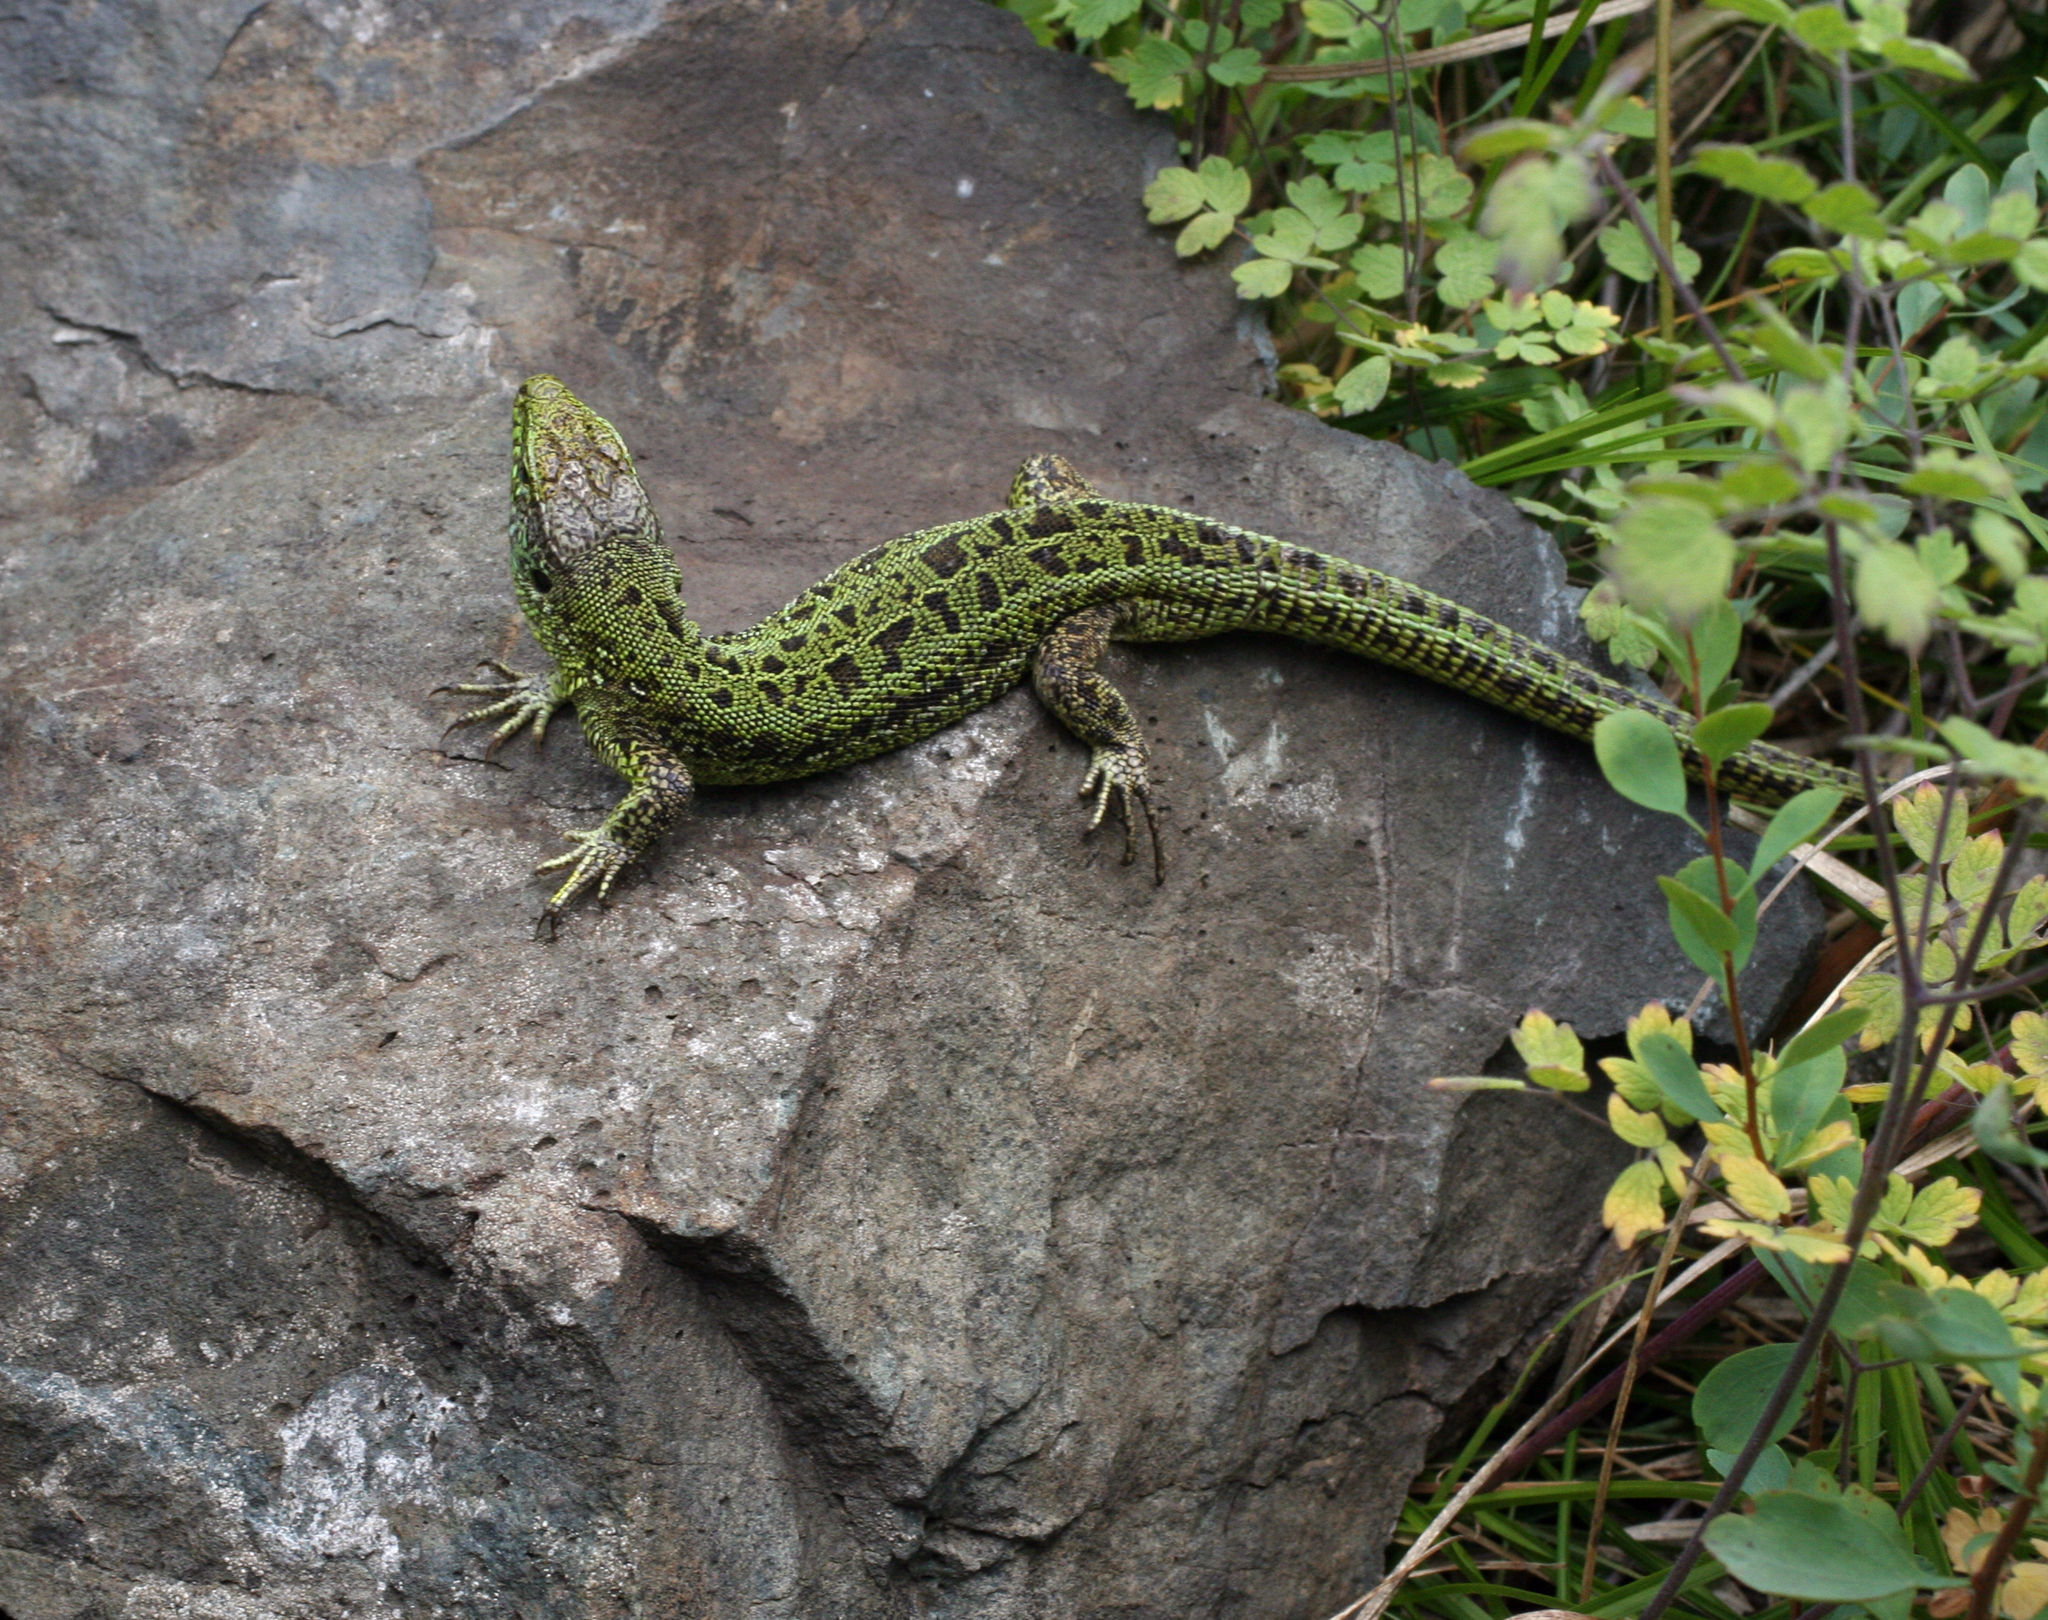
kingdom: Animalia
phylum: Chordata
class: Squamata
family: Lacertidae
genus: Lacerta
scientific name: Lacerta agilis
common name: Sand lizard
